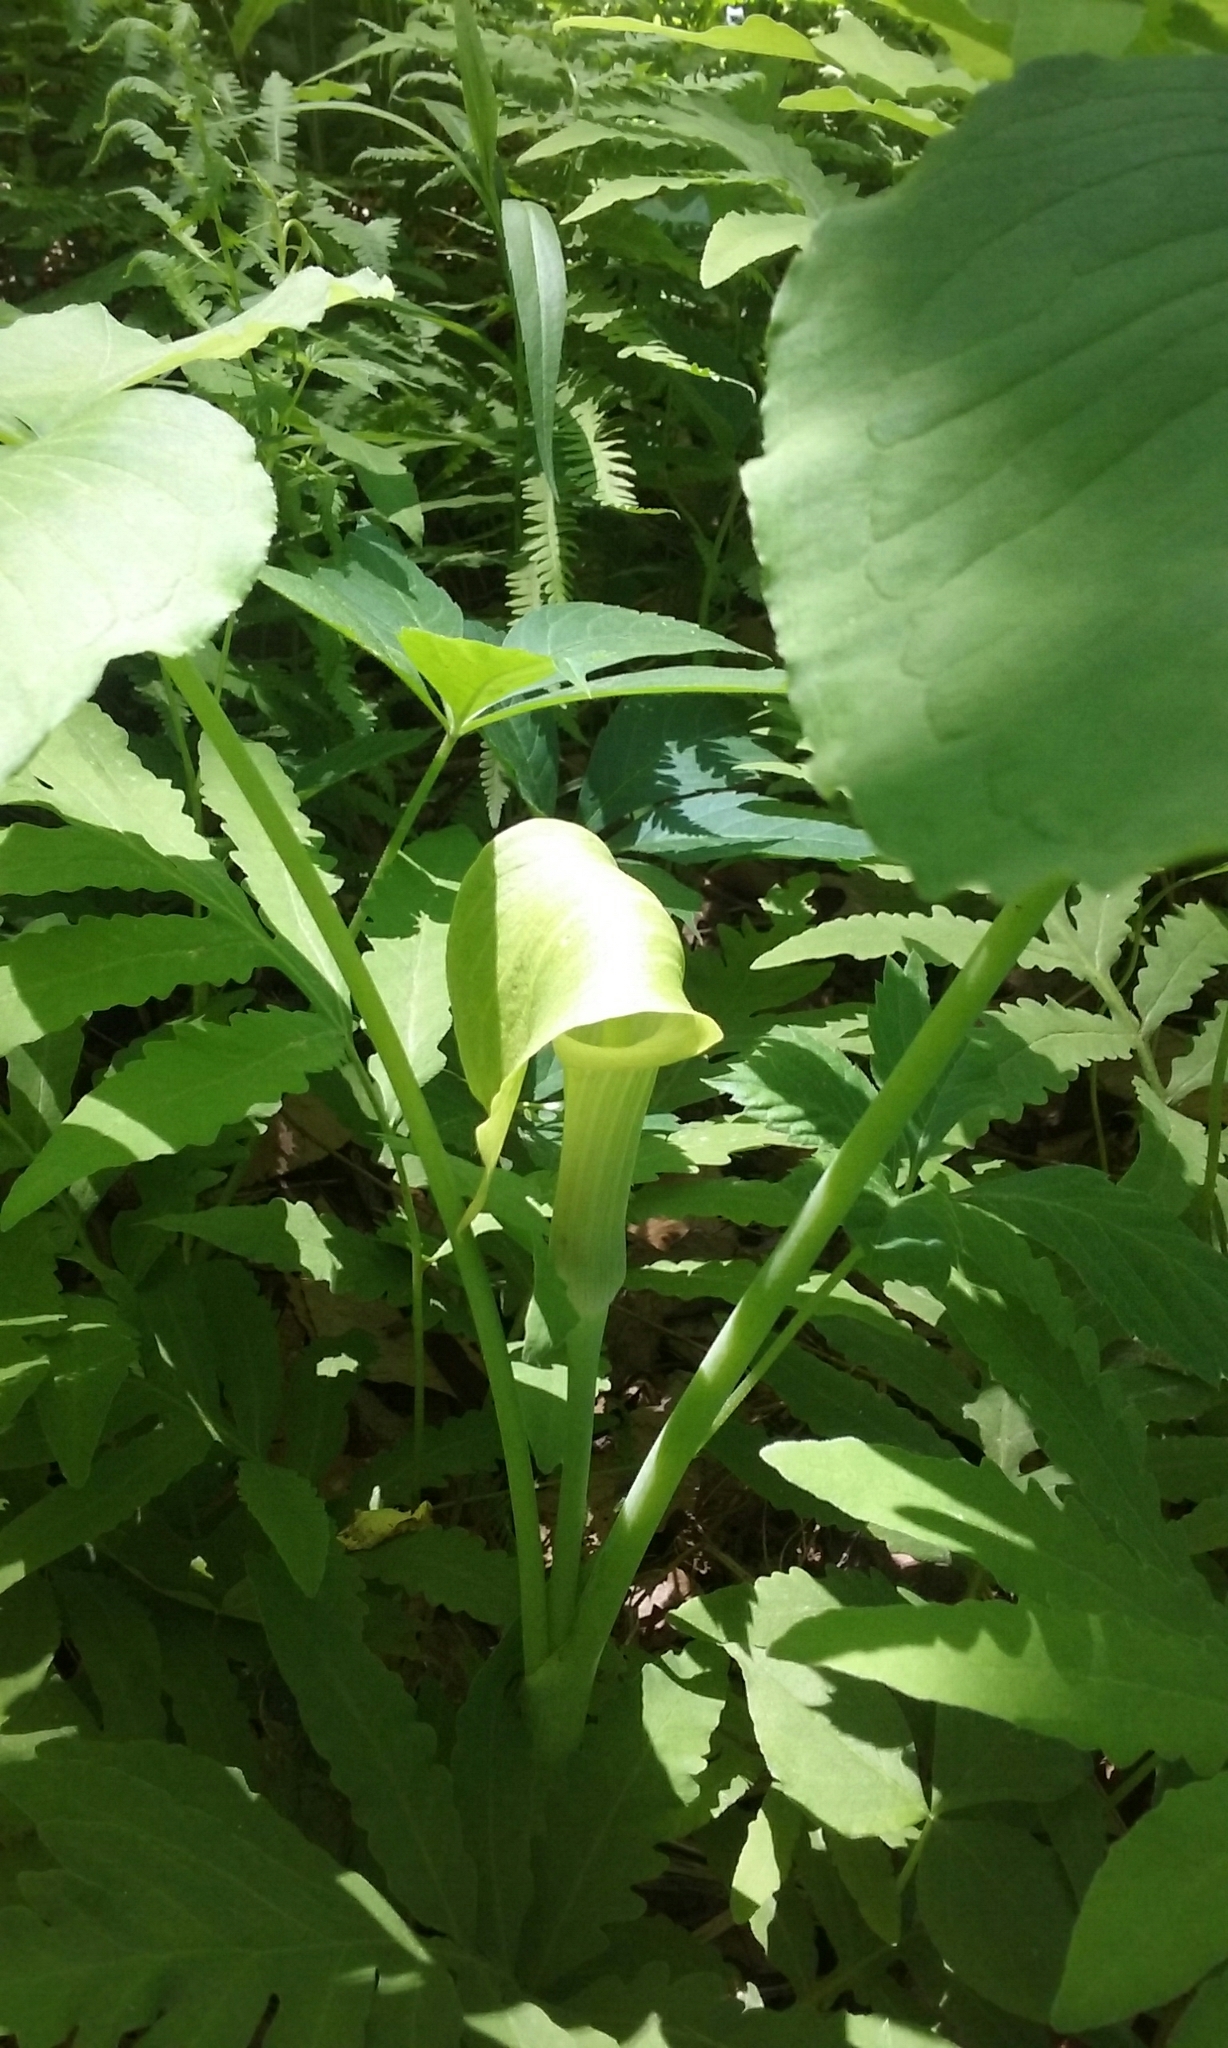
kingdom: Plantae
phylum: Tracheophyta
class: Liliopsida
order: Alismatales
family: Araceae
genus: Arisaema
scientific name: Arisaema triphyllum
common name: Jack-in-the-pulpit
